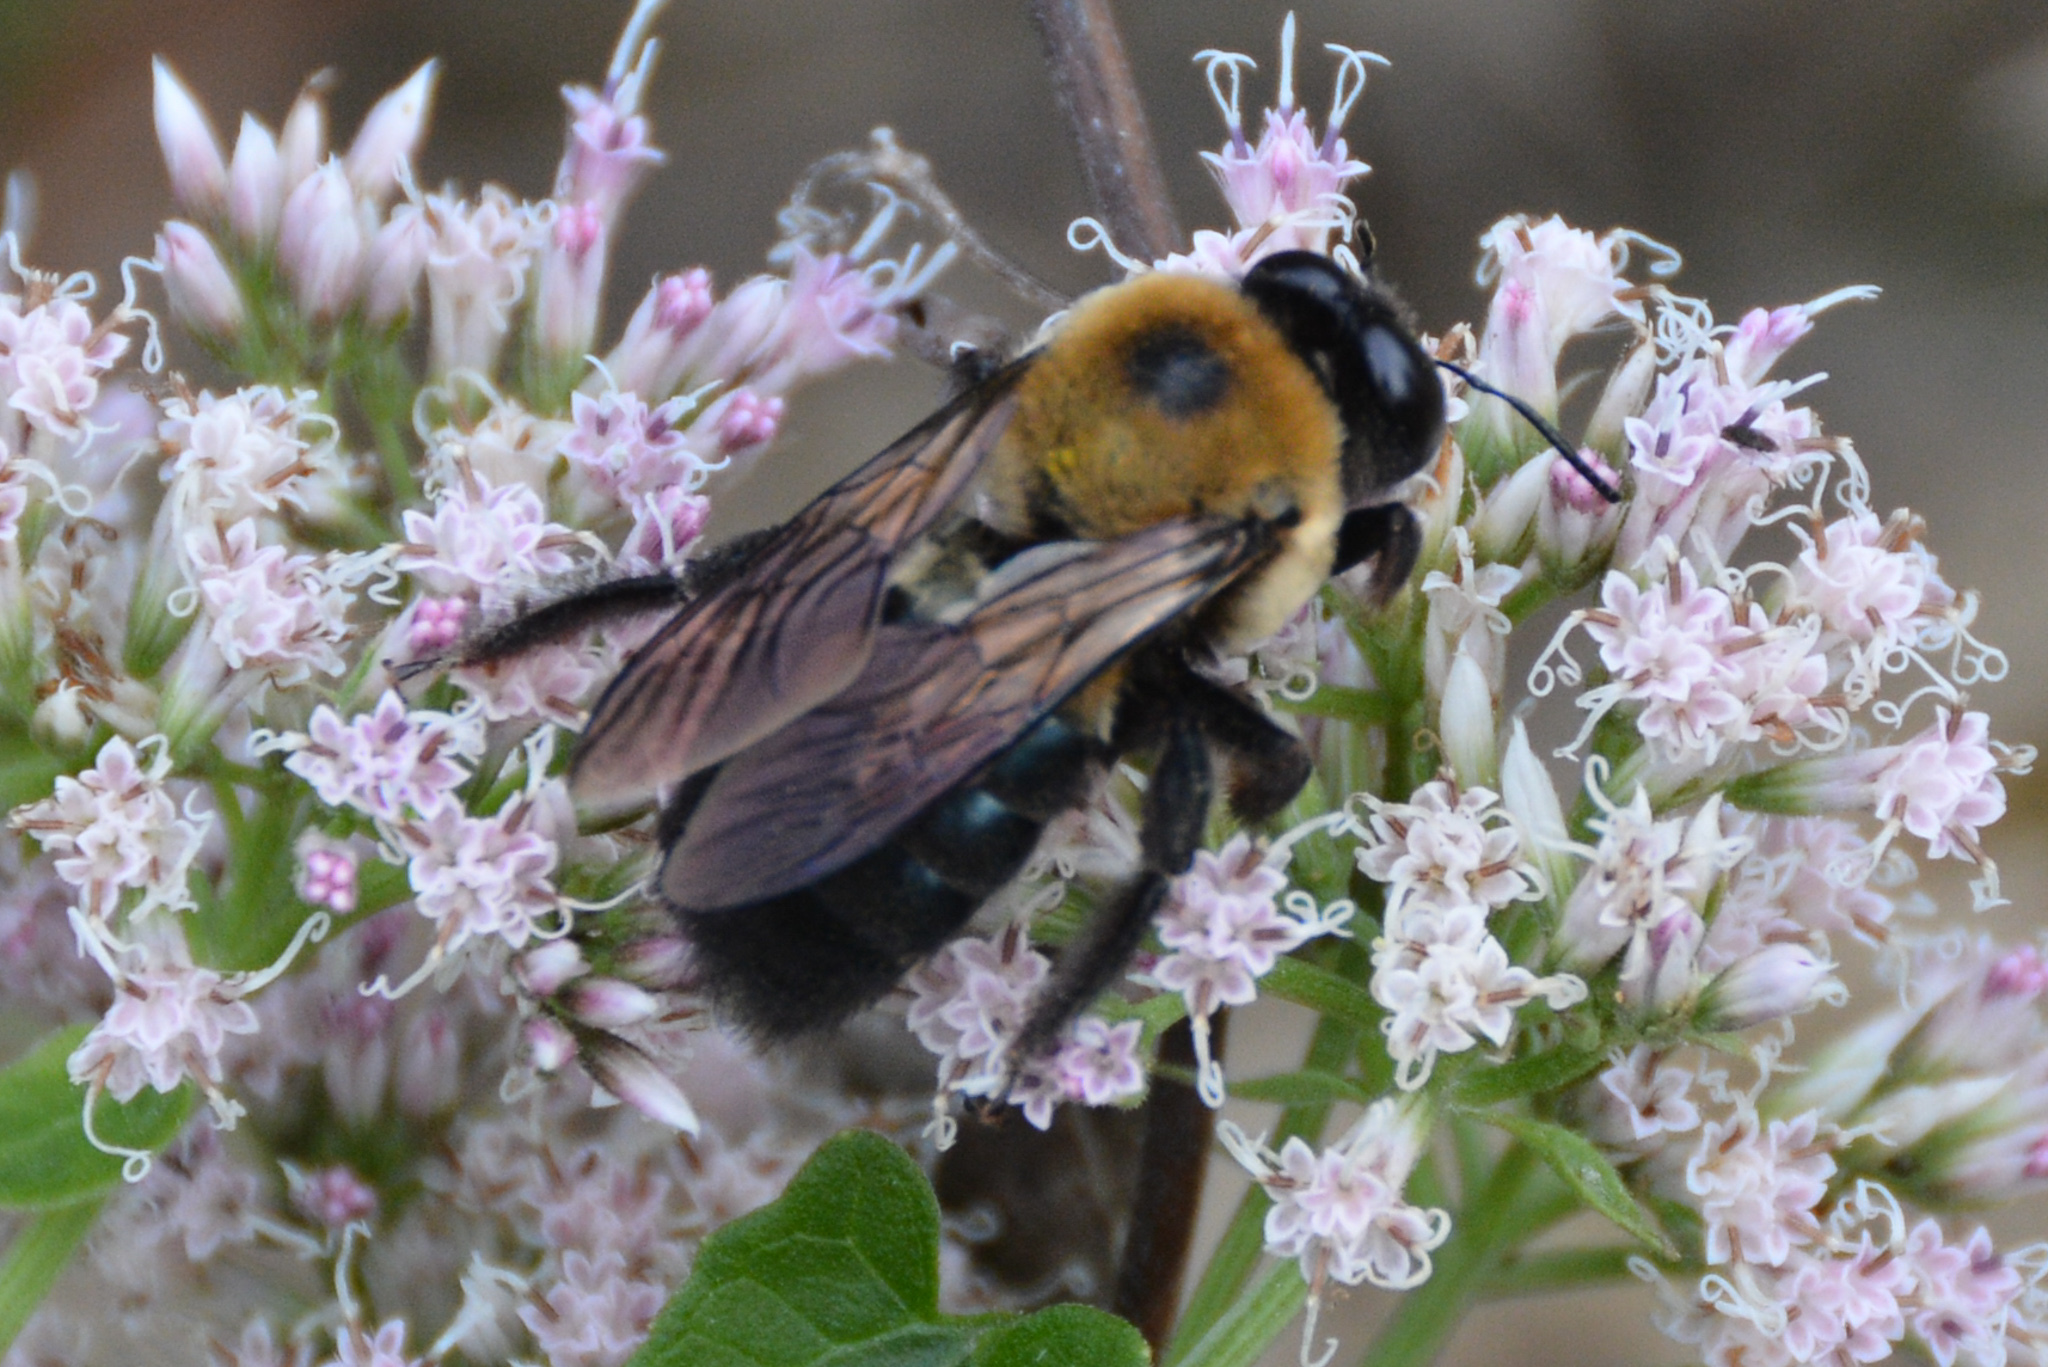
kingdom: Animalia
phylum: Arthropoda
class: Insecta
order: Hymenoptera
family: Apidae
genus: Xylocopa
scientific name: Xylocopa virginica
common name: Carpenter bee
